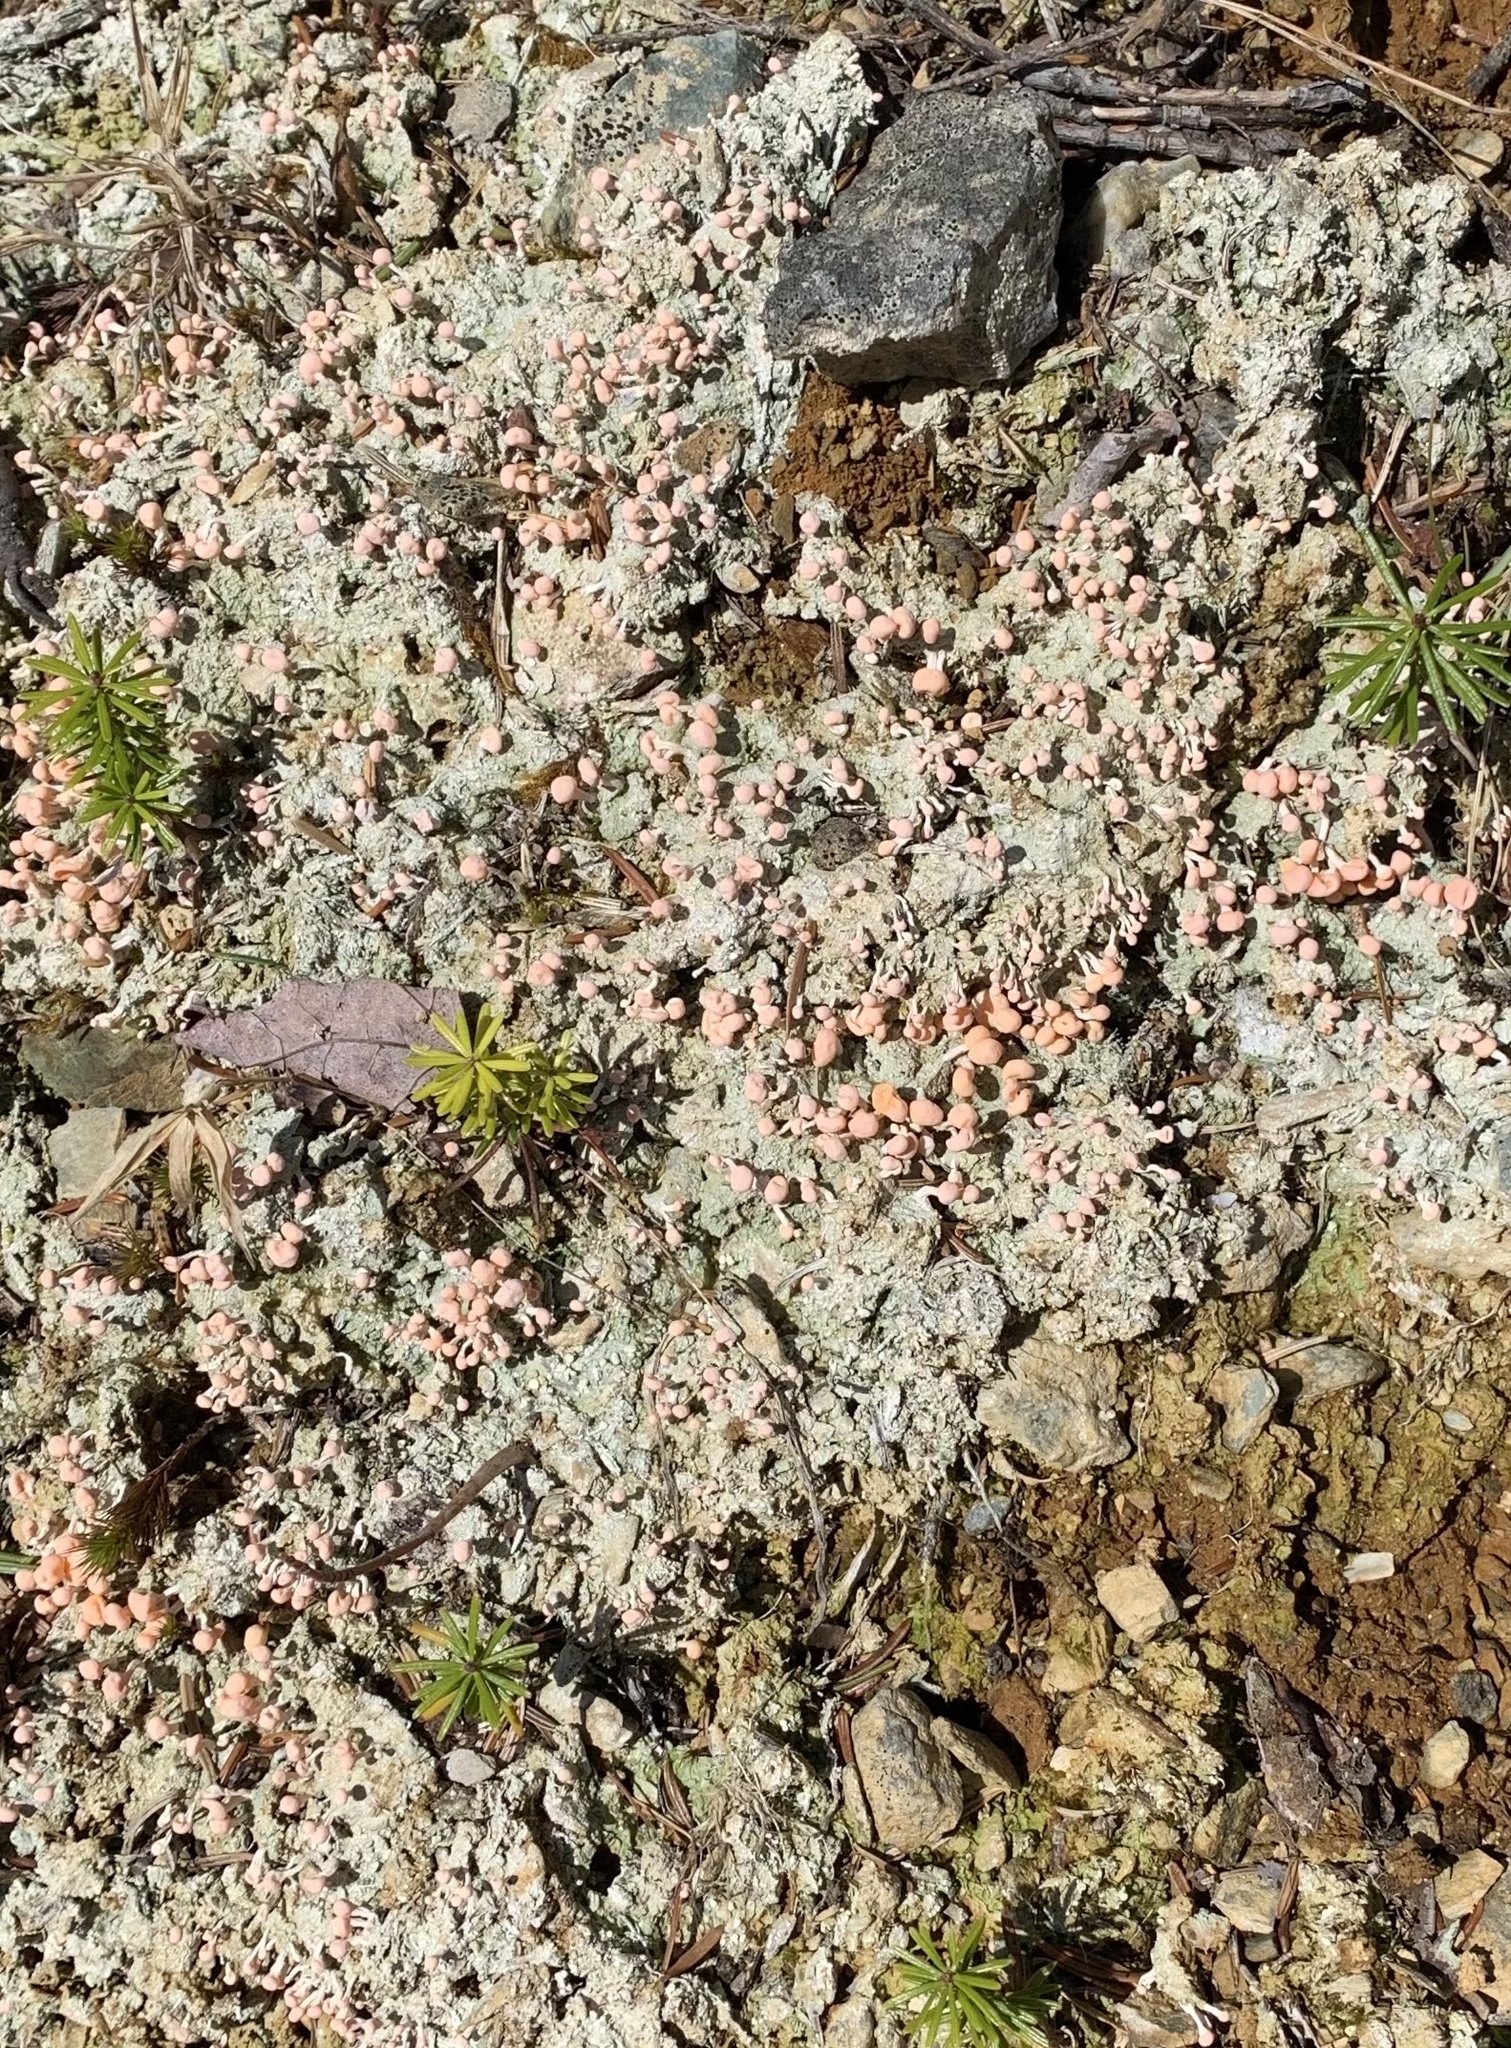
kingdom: Fungi
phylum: Ascomycota
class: Lecanoromycetes
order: Pertusariales
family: Icmadophilaceae
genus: Dibaeis
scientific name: Dibaeis baeomyces
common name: Pink earth lichen
